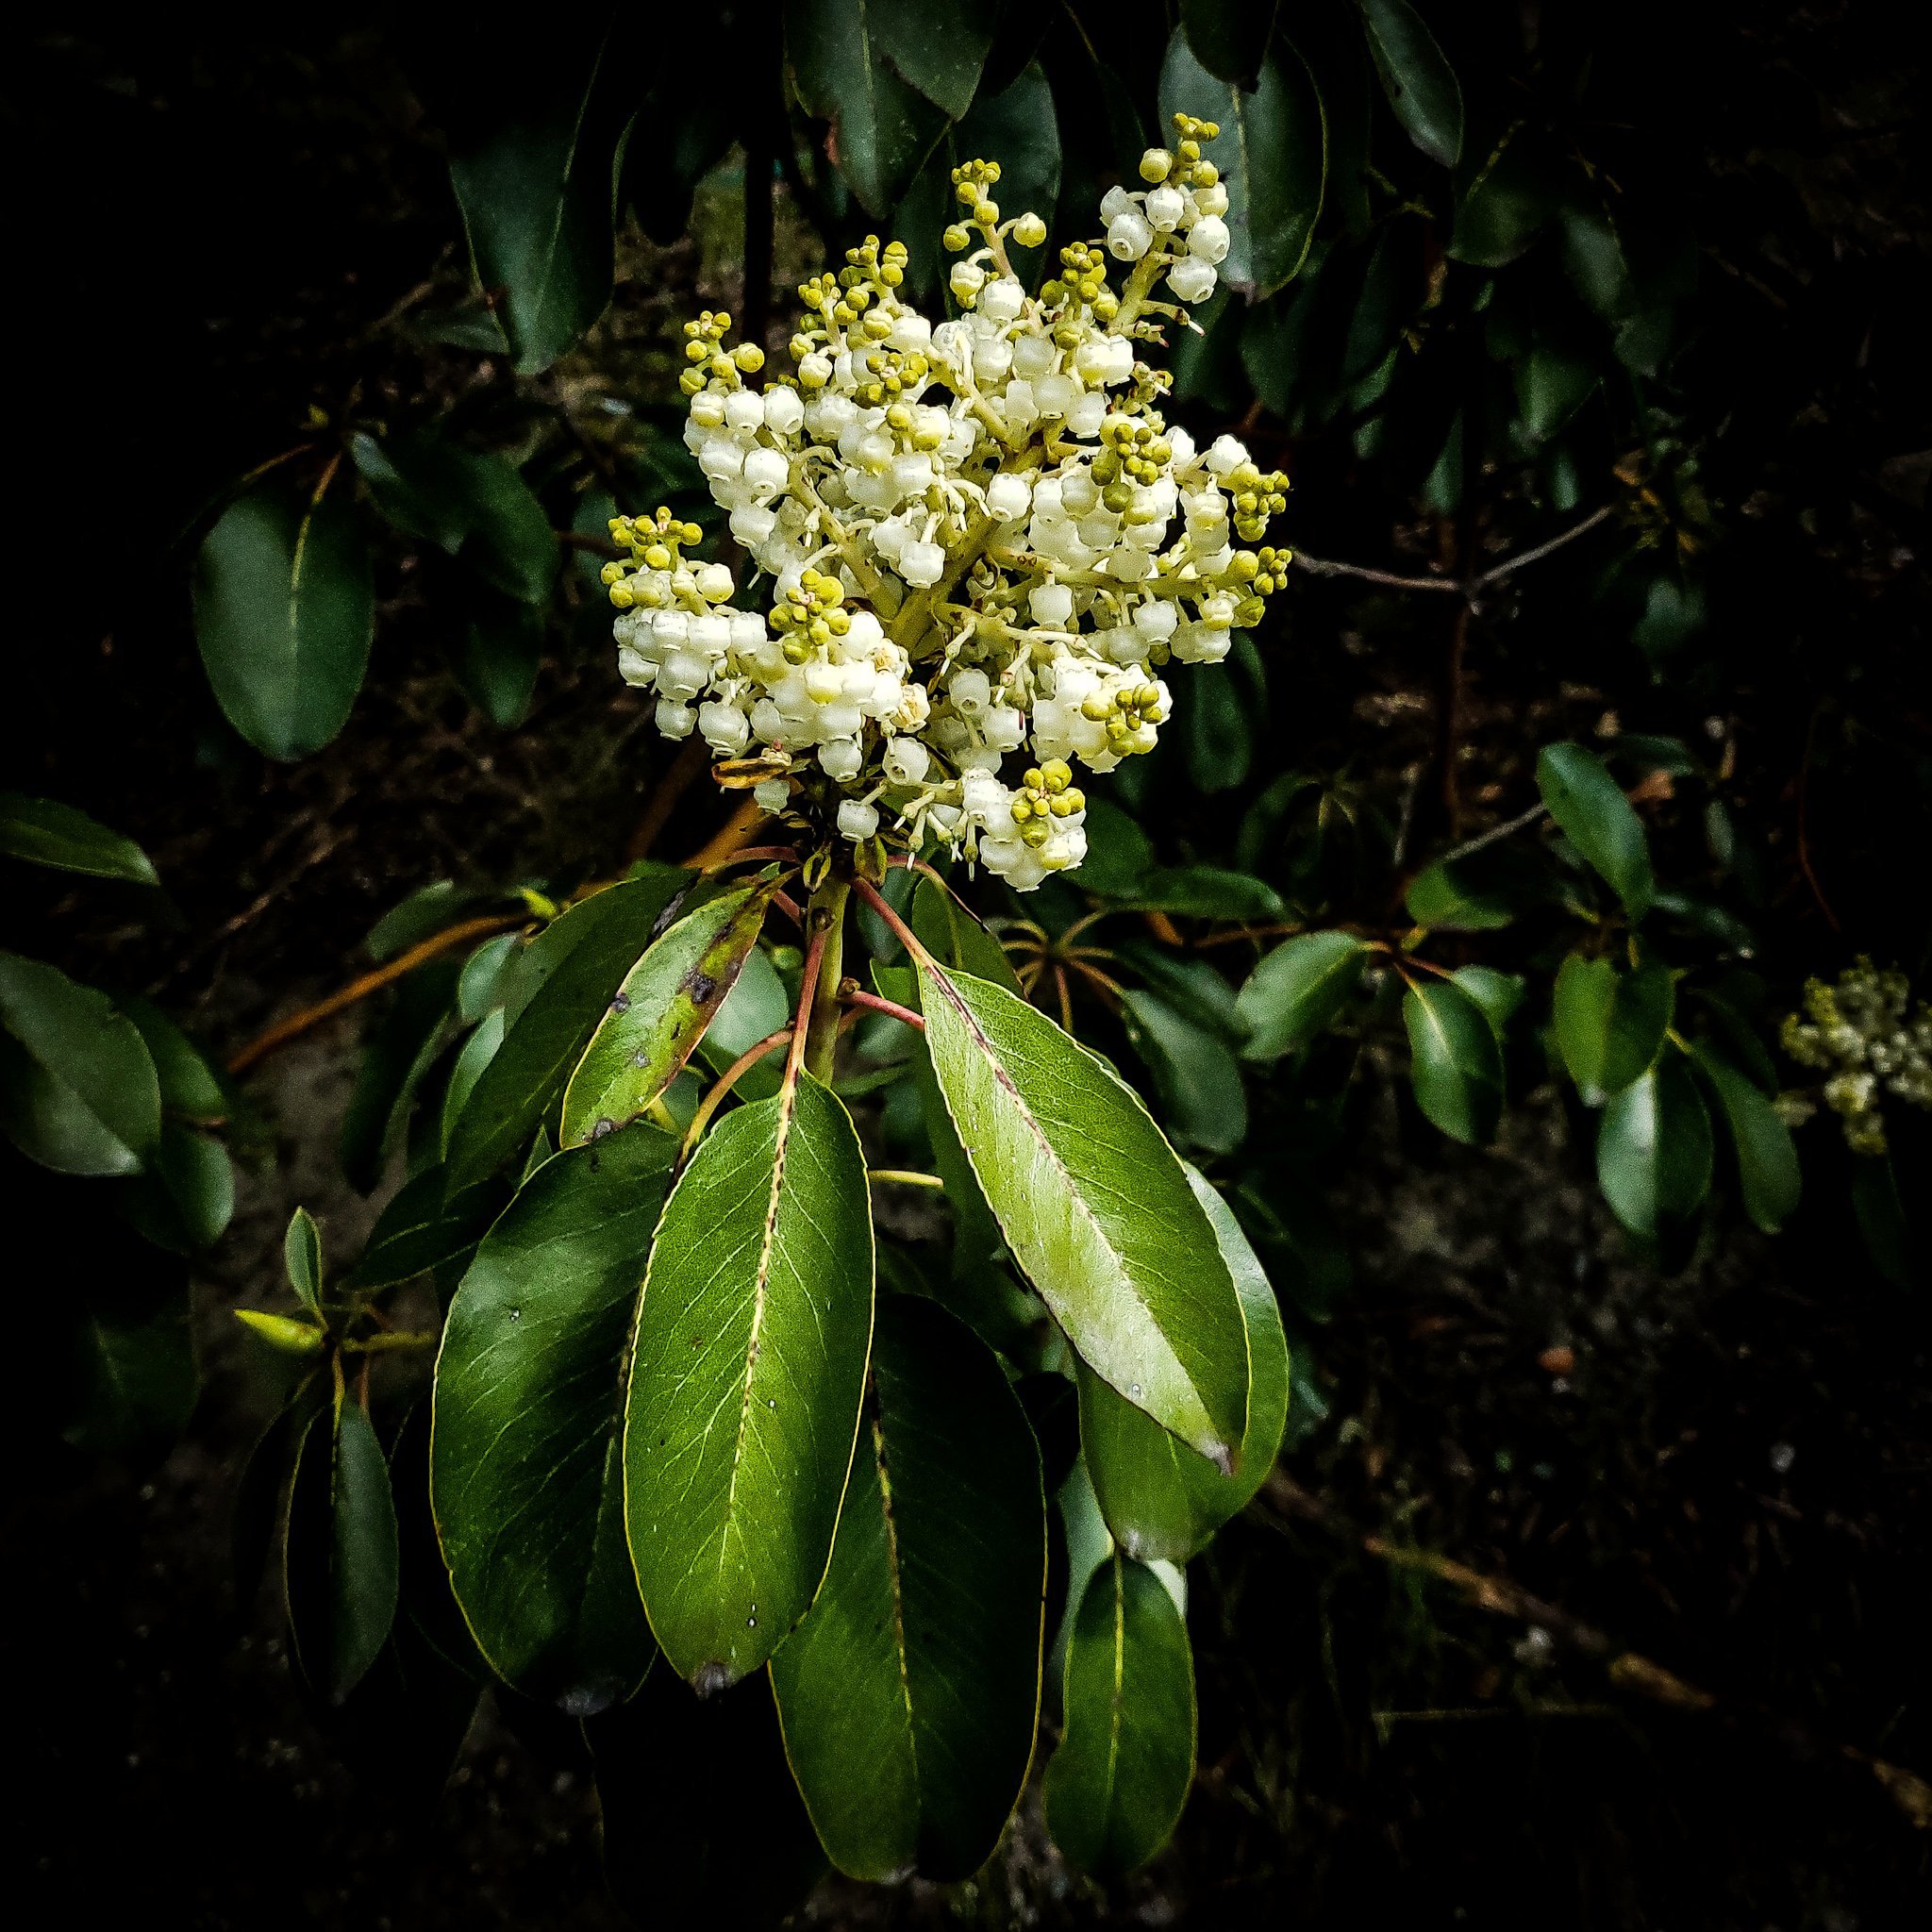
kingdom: Plantae
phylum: Tracheophyta
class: Magnoliopsida
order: Ericales
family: Ericaceae
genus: Arbutus
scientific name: Arbutus menziesii
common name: Pacific madrone
